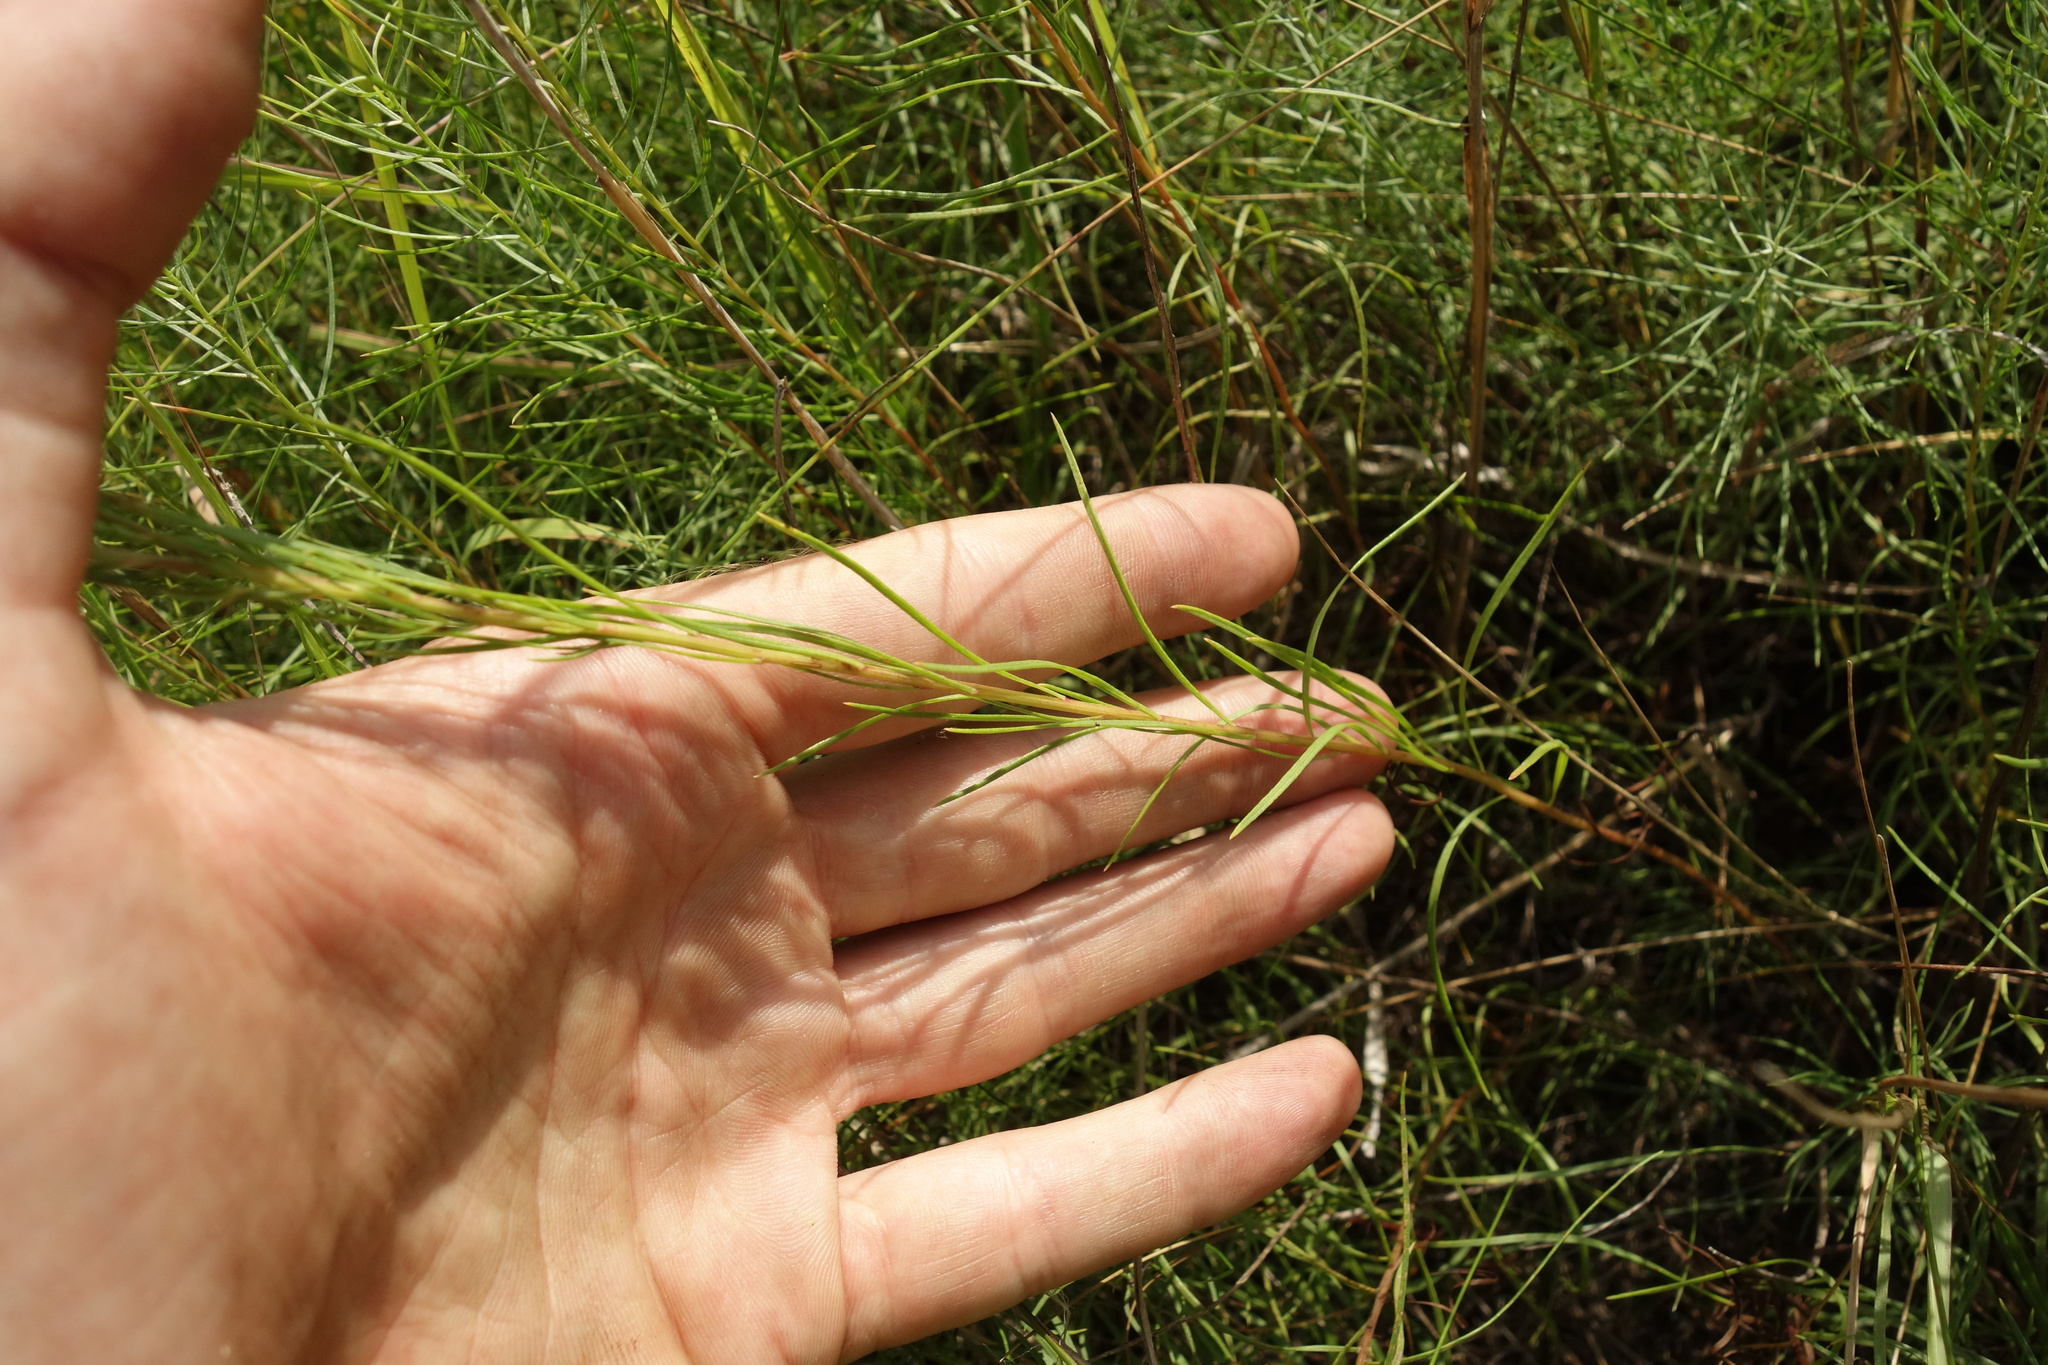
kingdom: Plantae
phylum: Tracheophyta
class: Magnoliopsida
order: Asterales
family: Asteraceae
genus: Galatella
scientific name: Galatella linosyris
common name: Goldilocks aster
